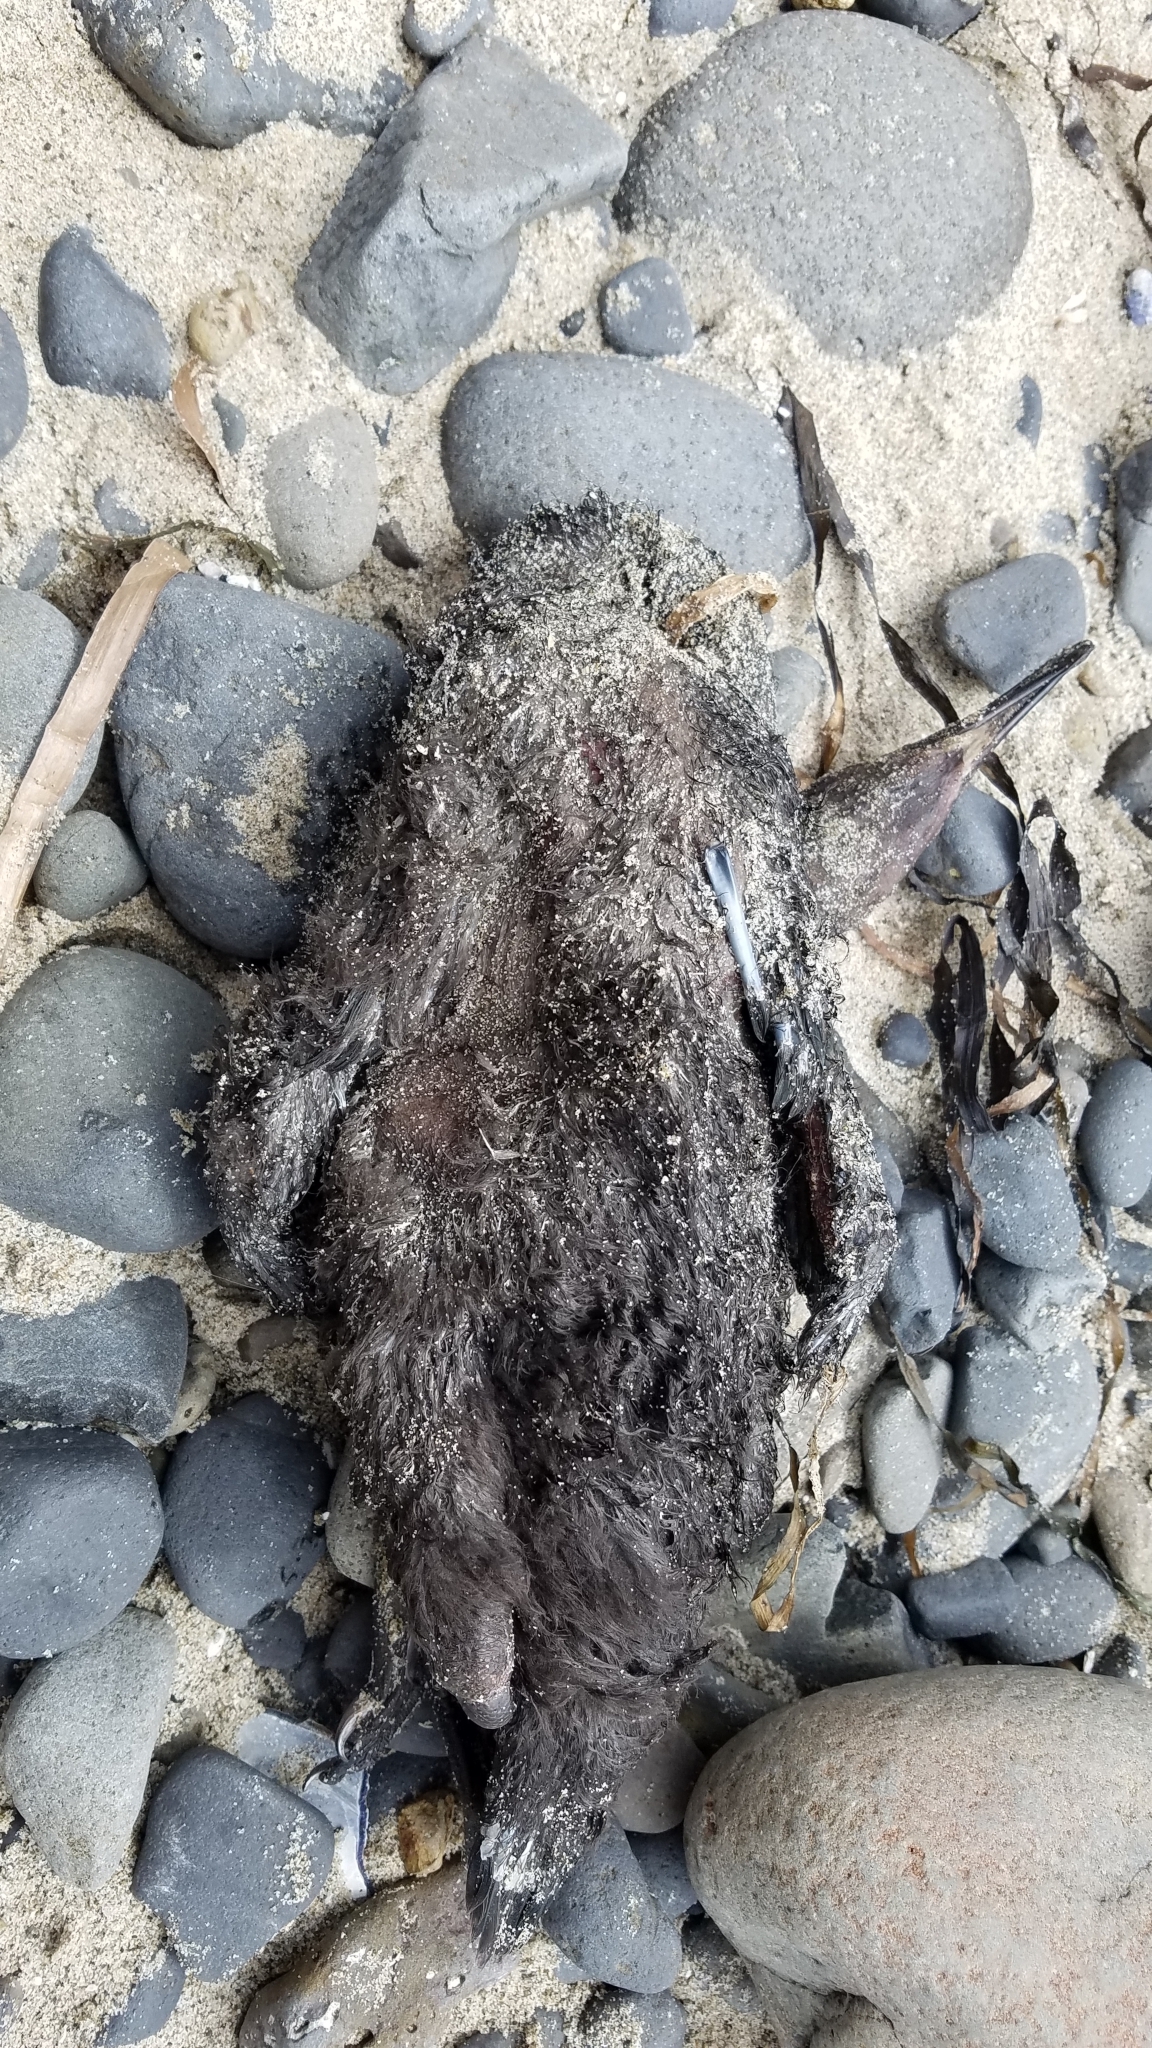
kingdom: Animalia
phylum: Chordata
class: Aves
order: Suliformes
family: Phalacrocoracidae
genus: Phalacrocorax
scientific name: Phalacrocorax pelagicus
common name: Pelagic cormorant
